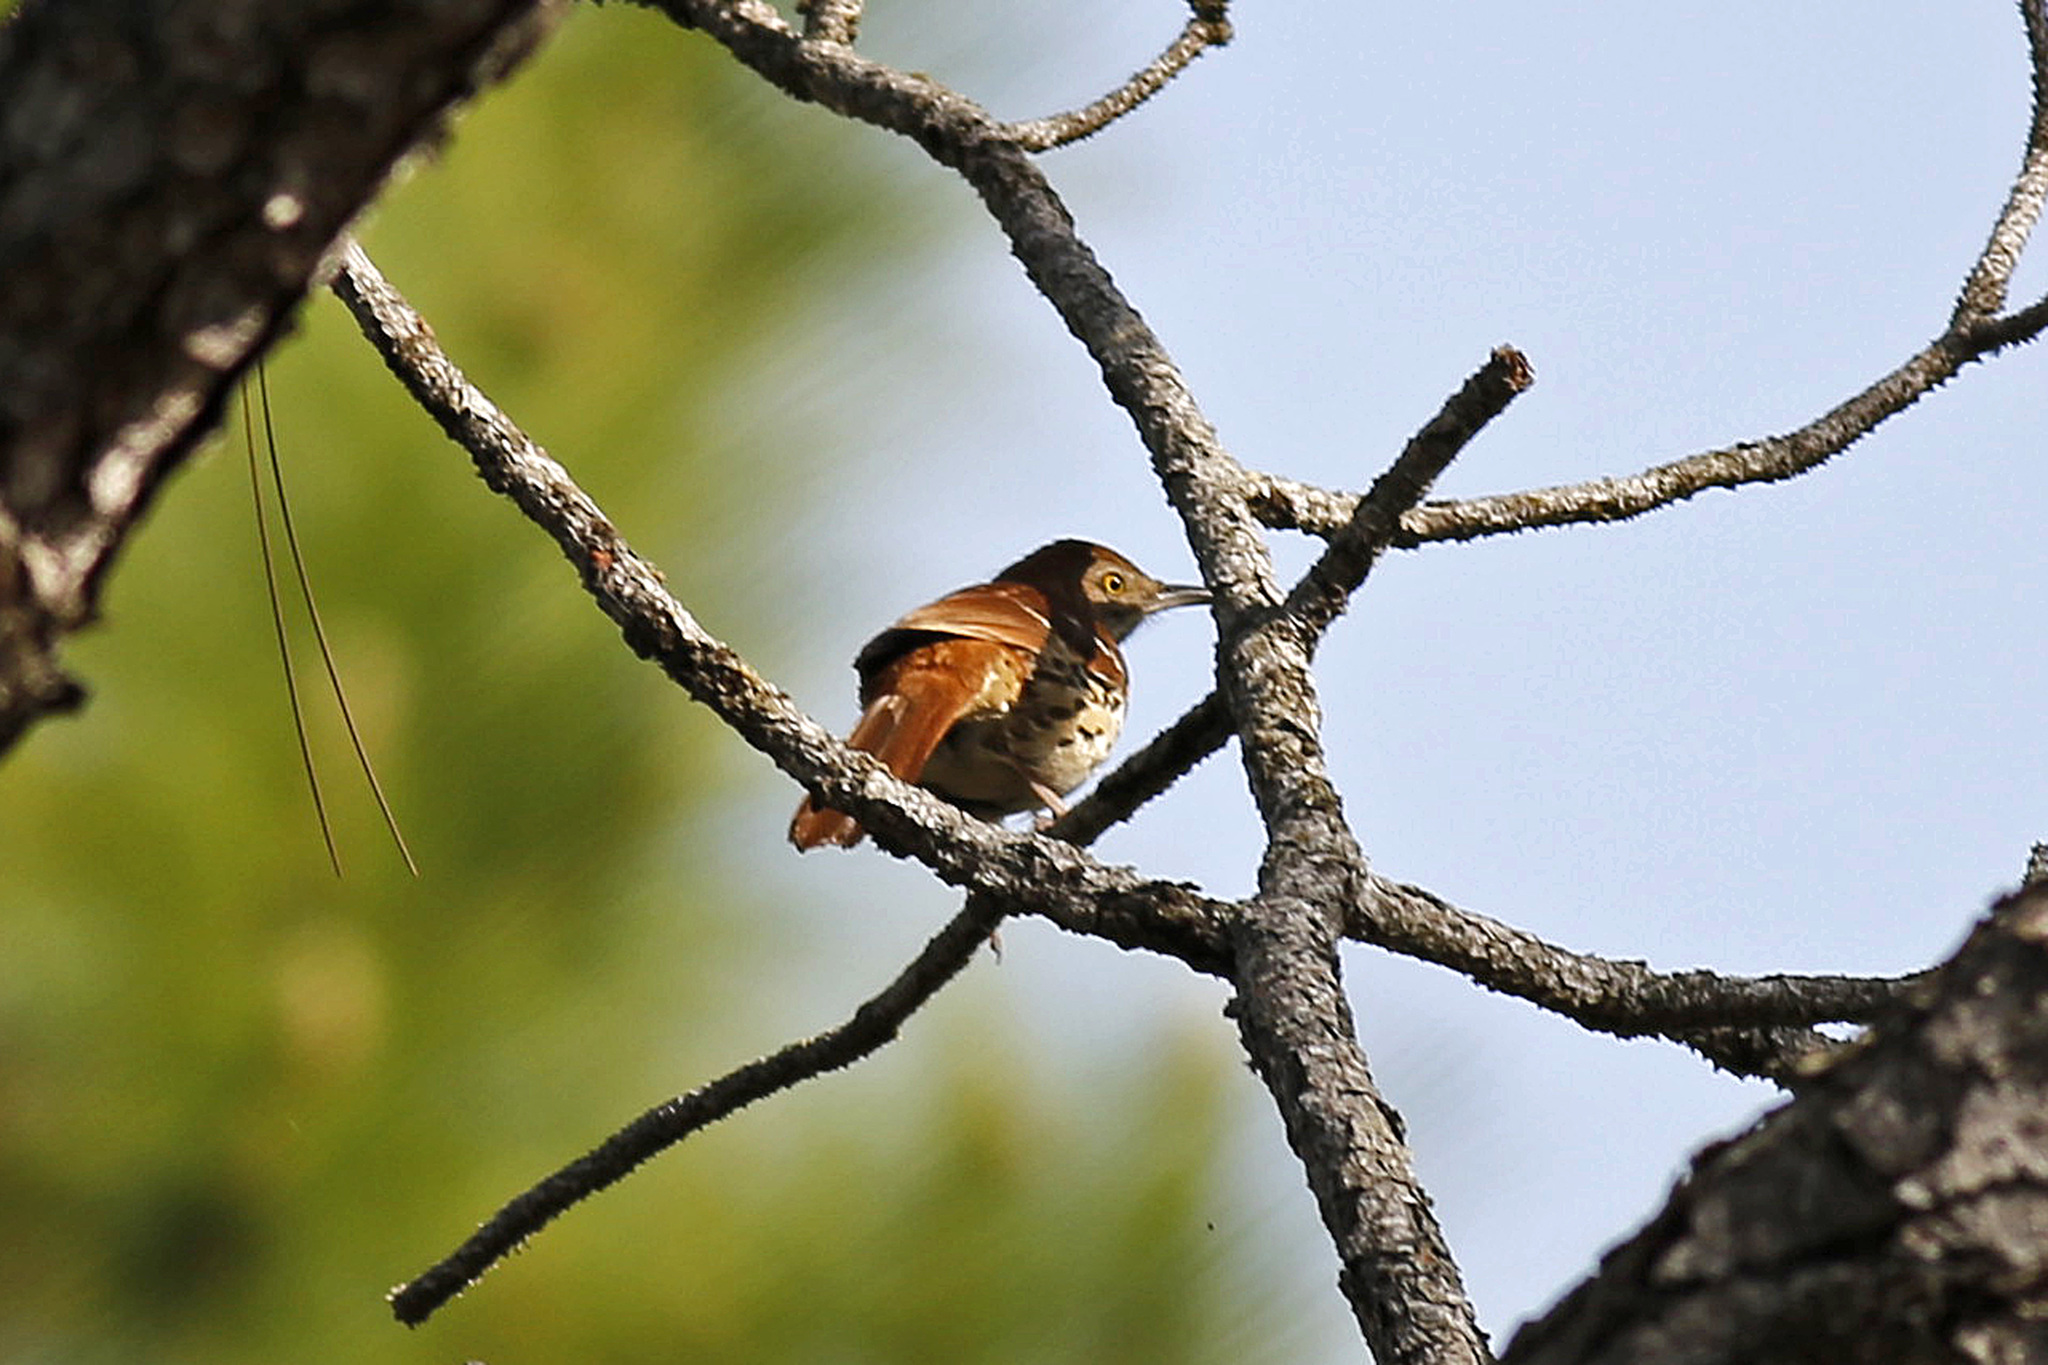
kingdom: Animalia
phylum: Chordata
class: Aves
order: Passeriformes
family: Mimidae
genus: Toxostoma
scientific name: Toxostoma rufum
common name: Brown thrasher
